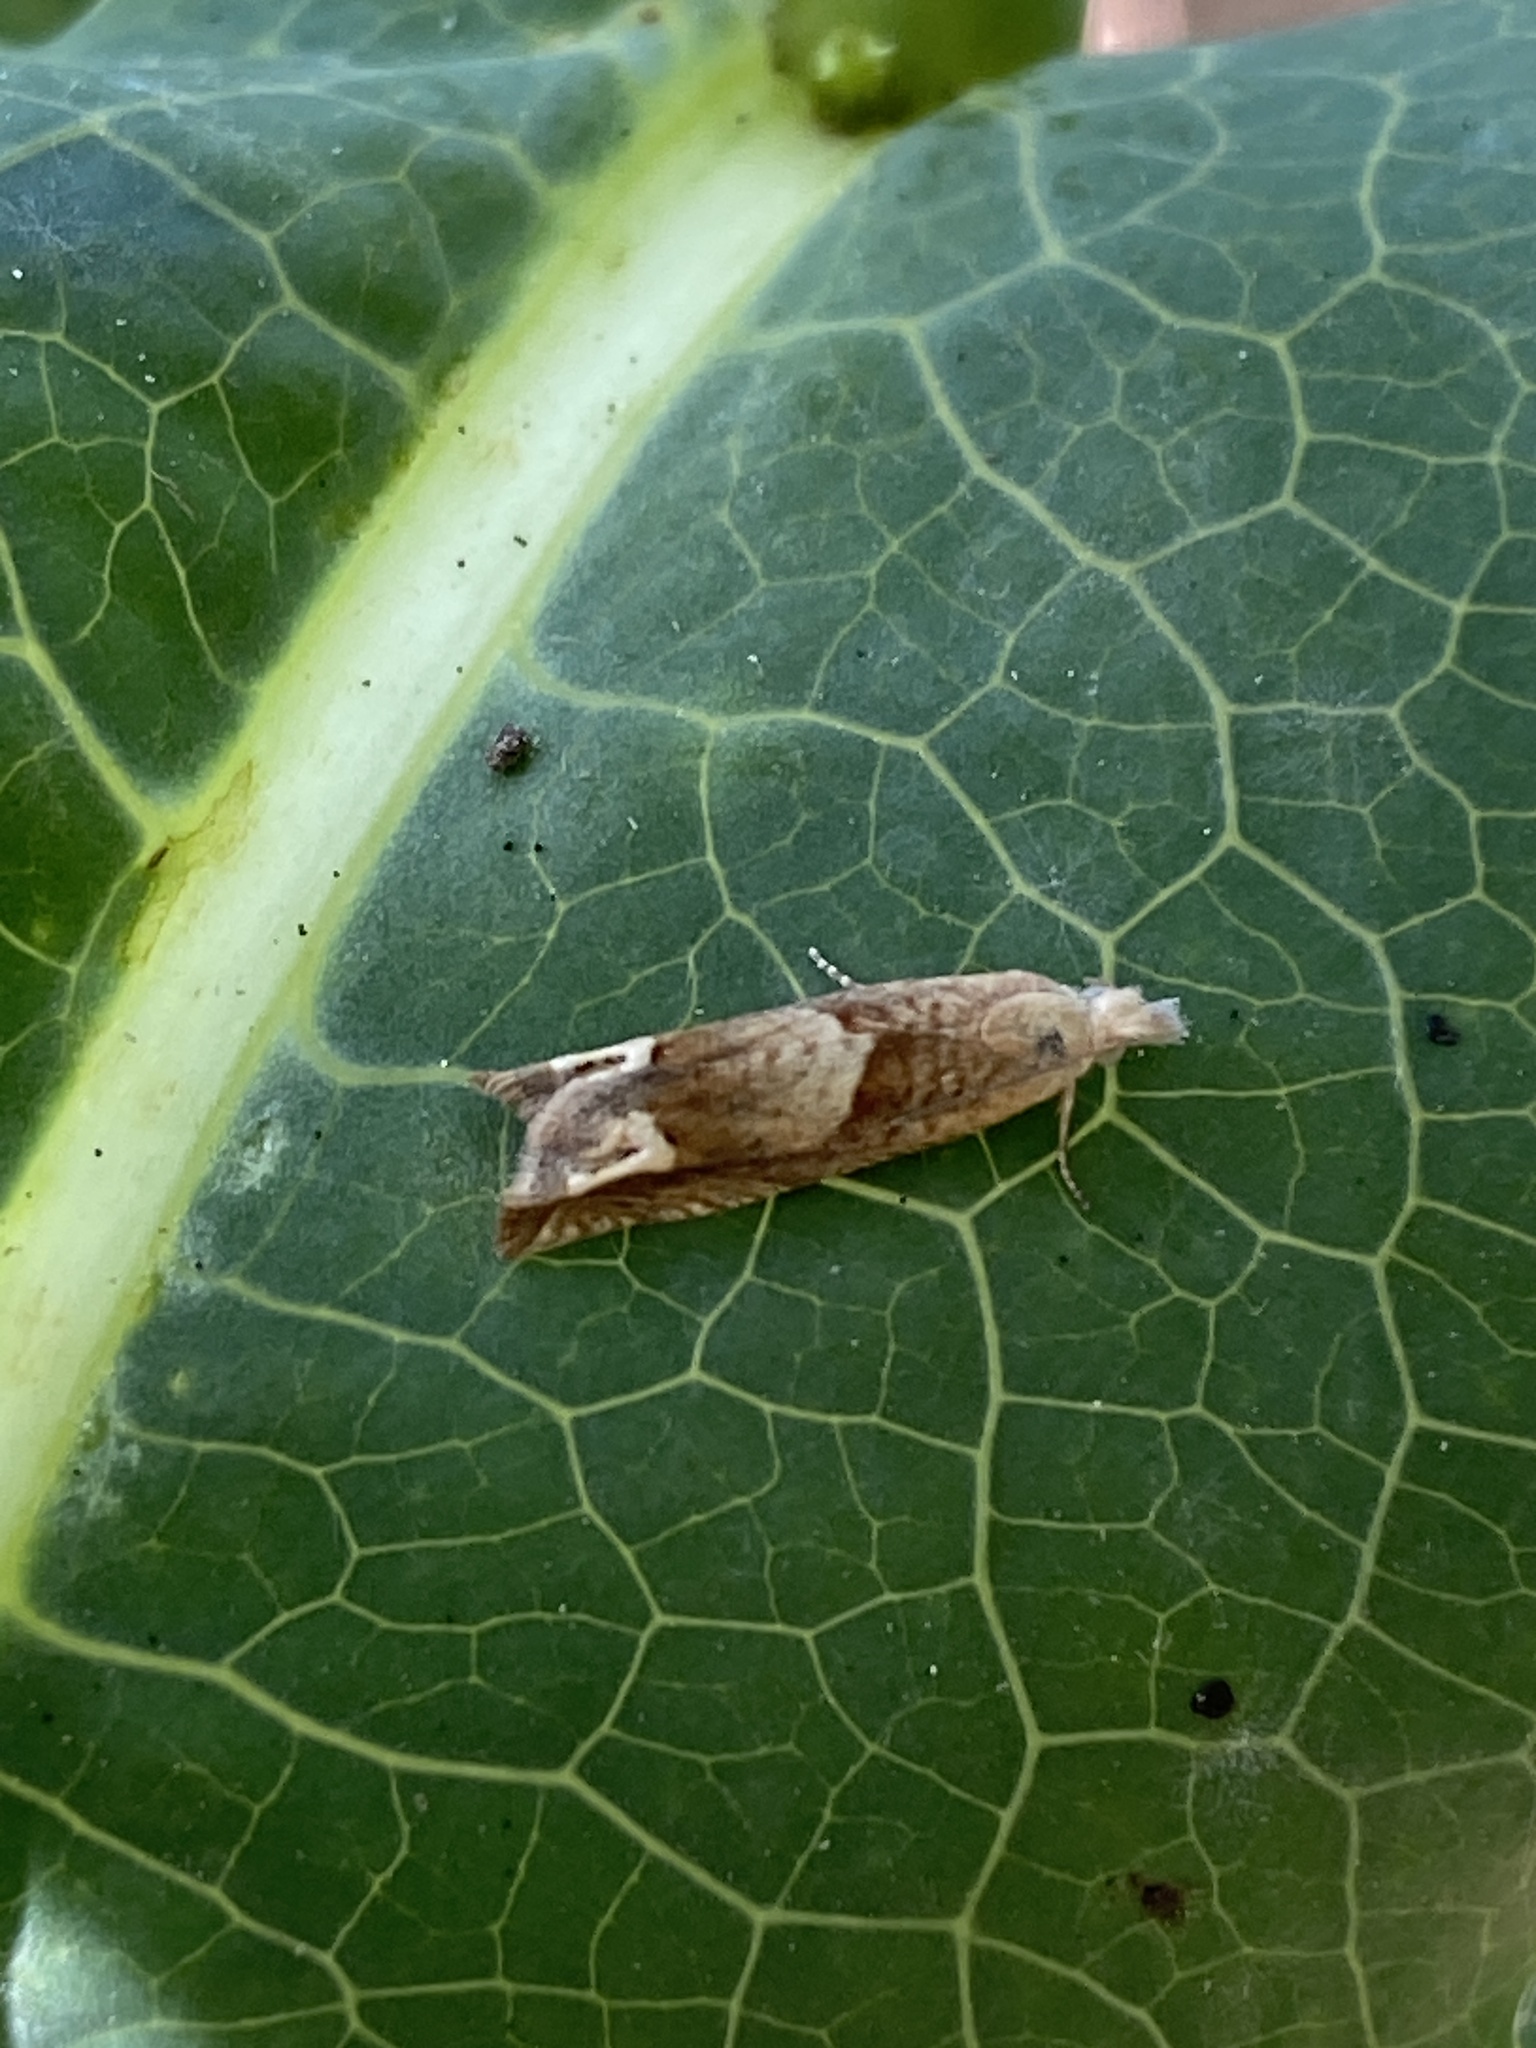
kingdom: Animalia
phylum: Arthropoda
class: Insecta
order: Lepidoptera
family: Tortricidae
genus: Eucosma
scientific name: Eucosma conterminana
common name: Pale lettuce bell
